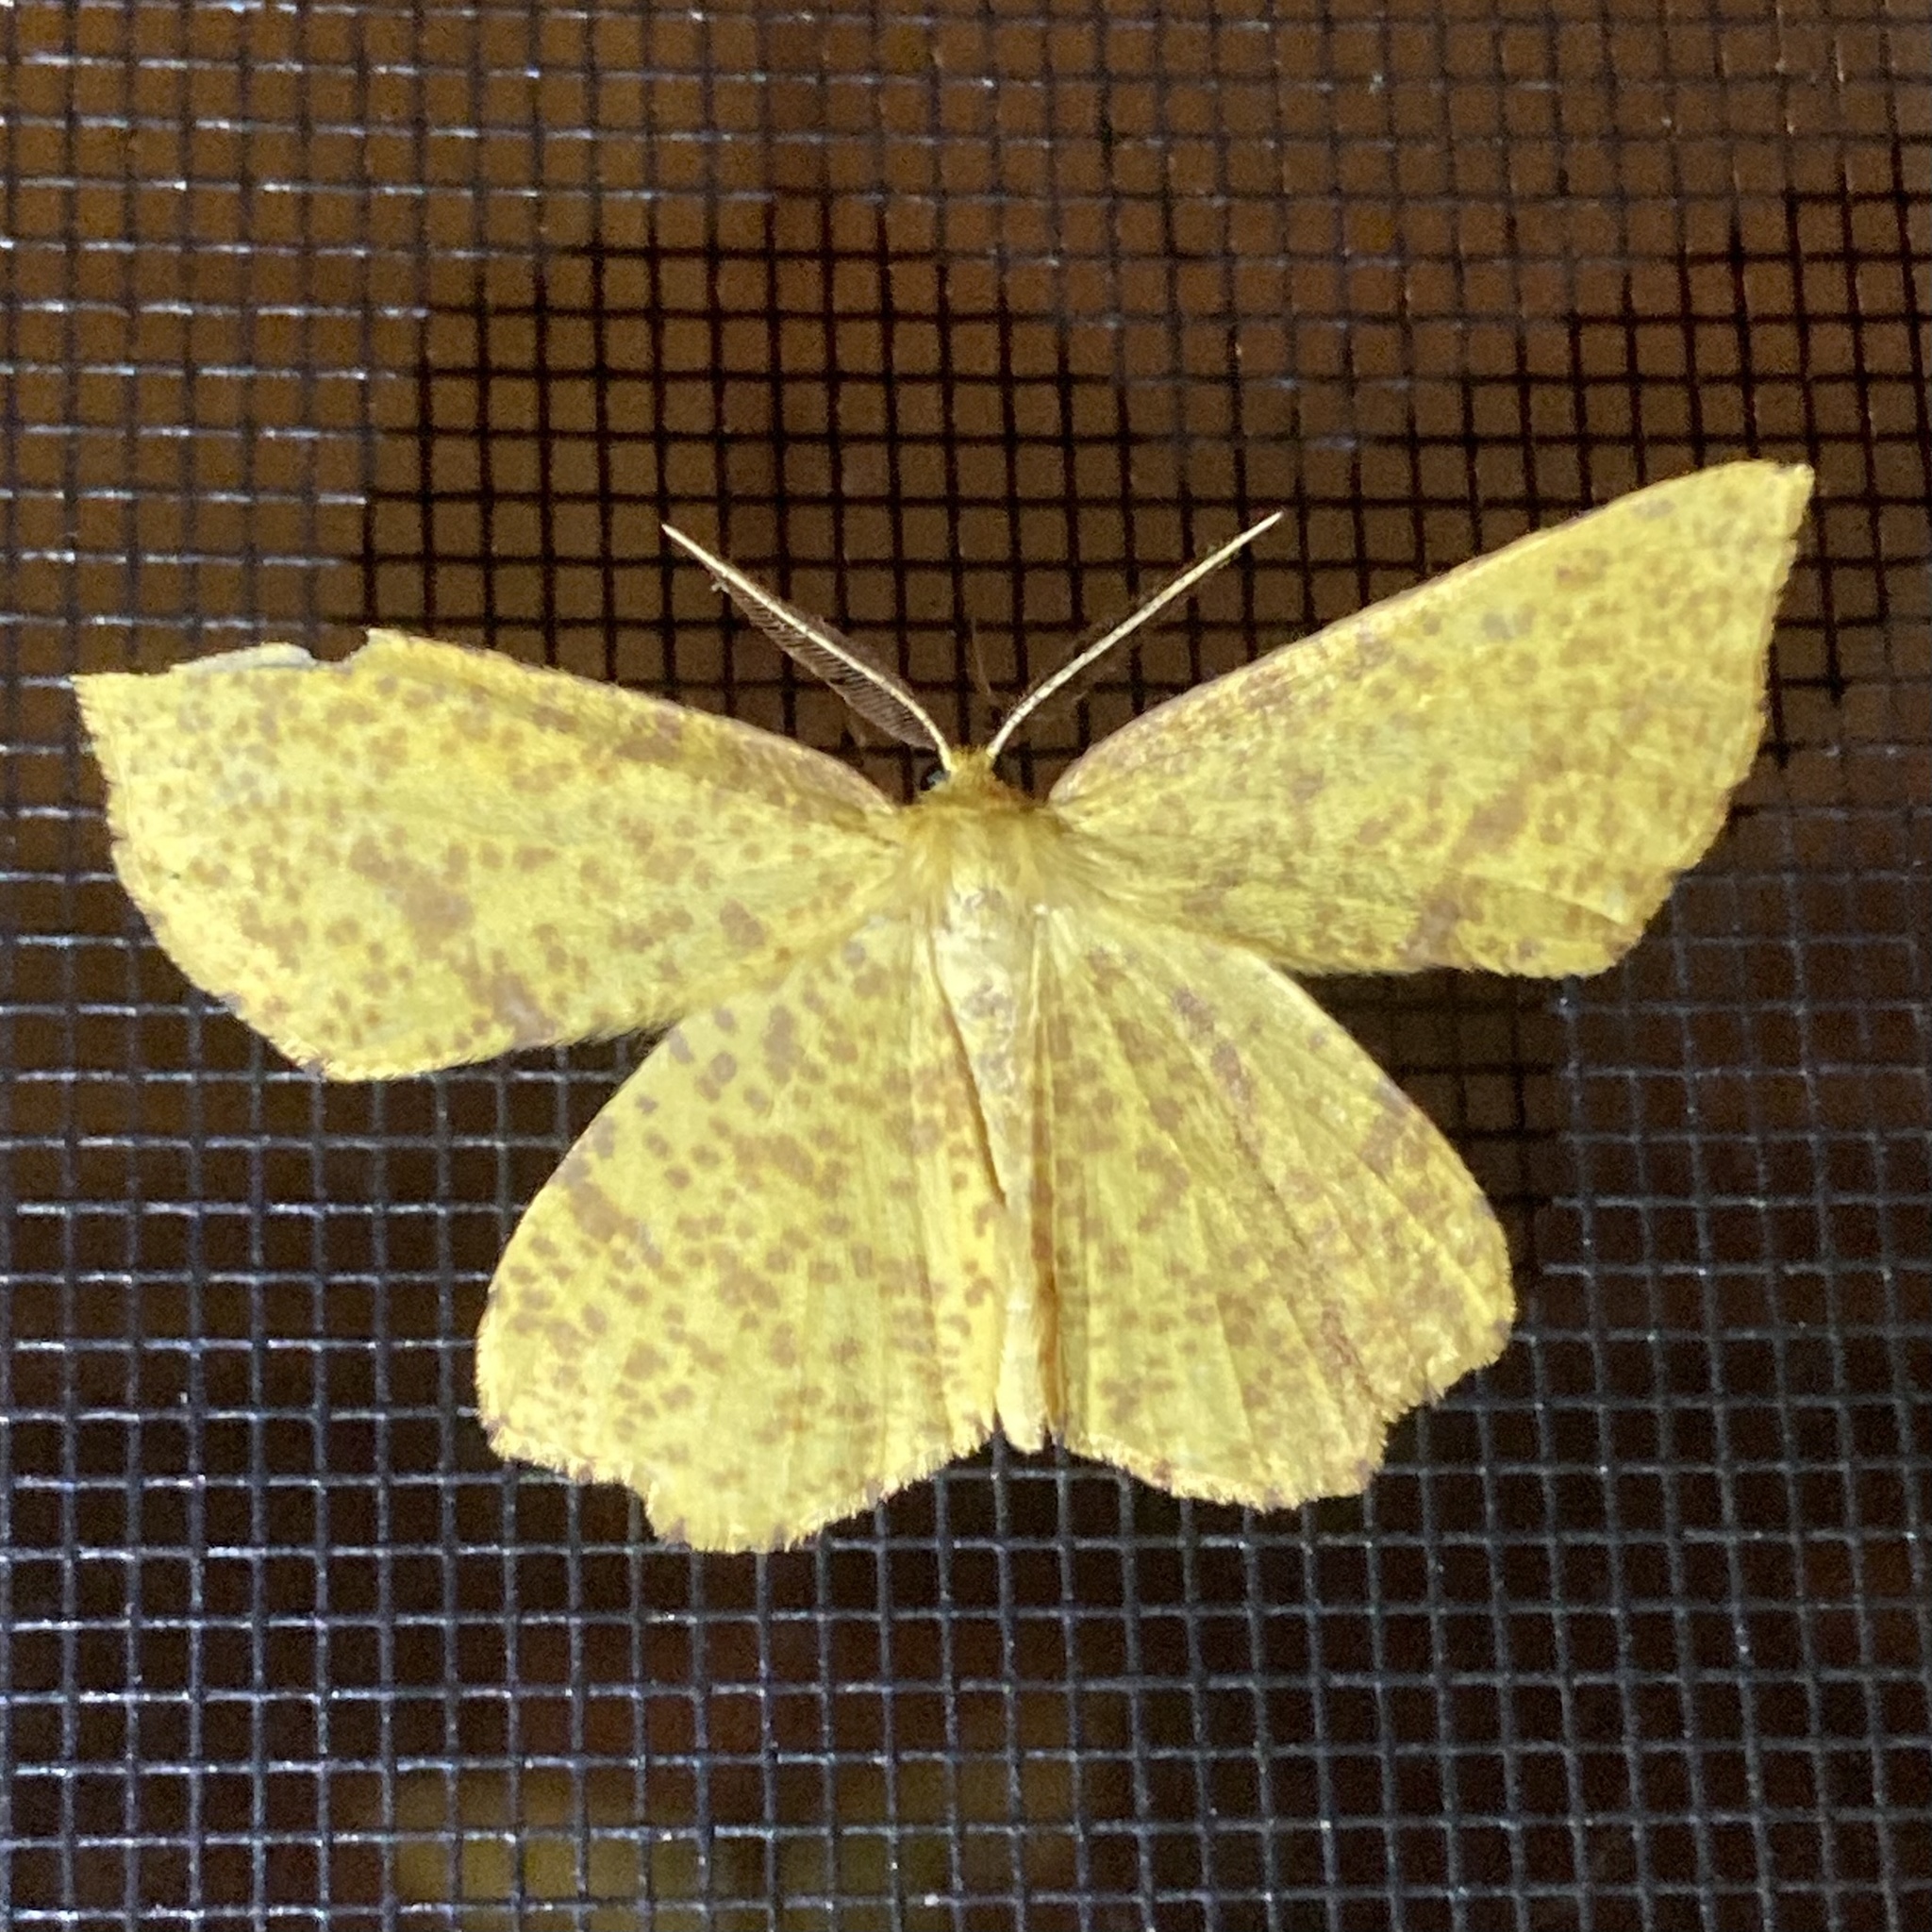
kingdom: Animalia
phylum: Arthropoda
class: Insecta
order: Lepidoptera
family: Geometridae
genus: Xanthotype
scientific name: Xanthotype
